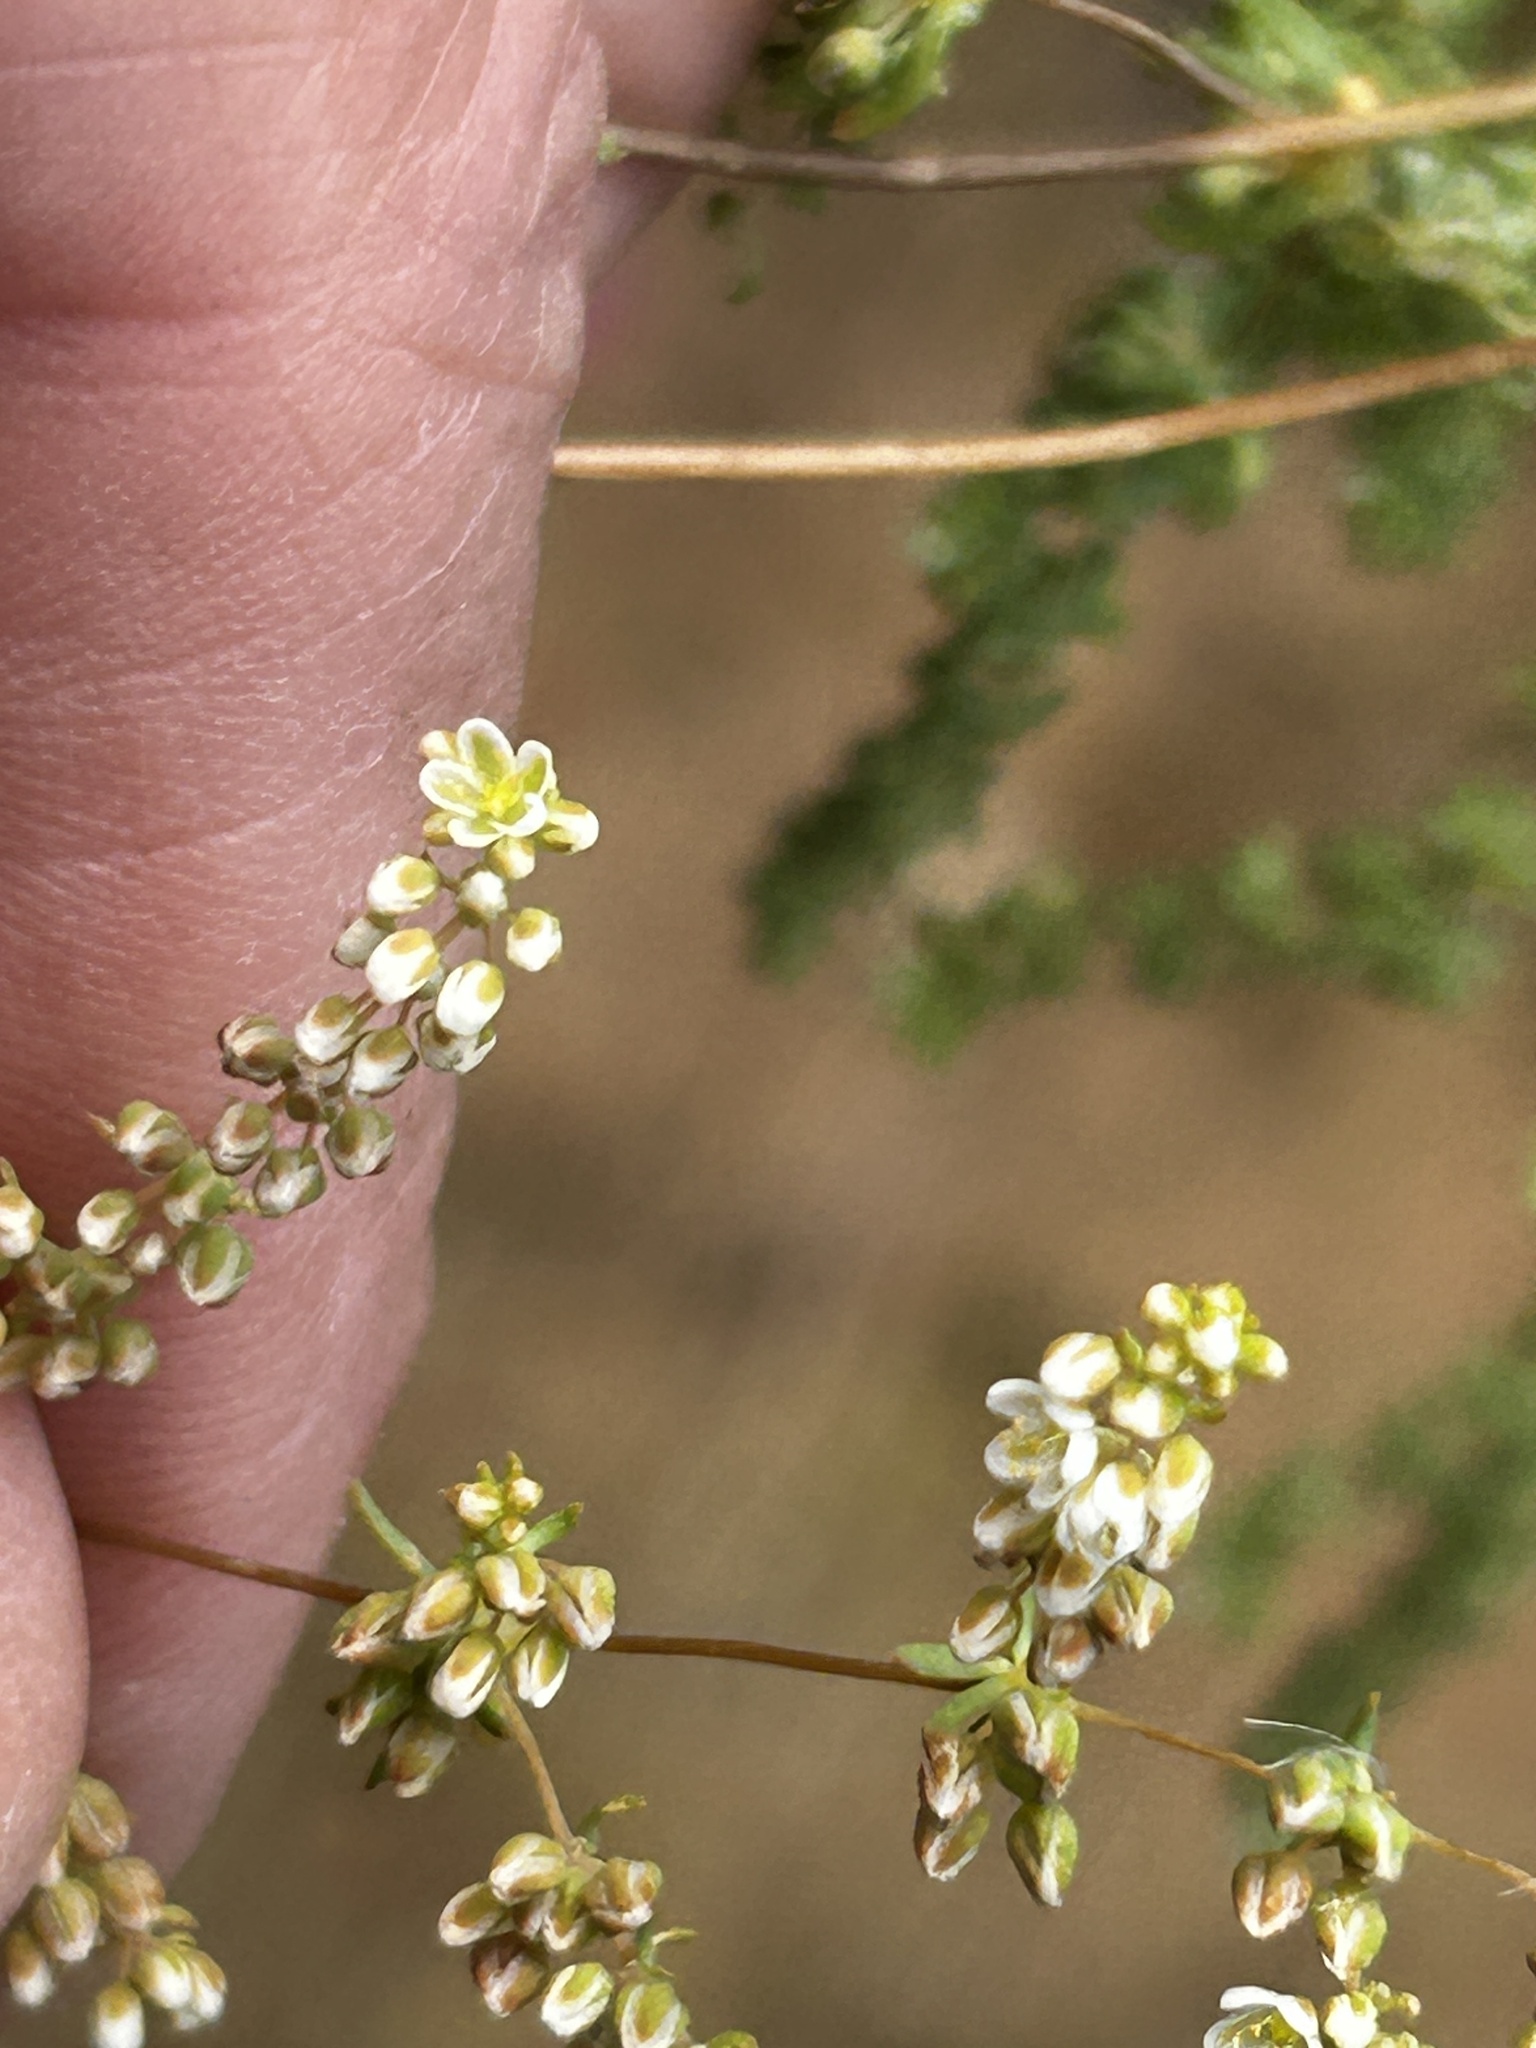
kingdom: Plantae
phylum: Tracheophyta
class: Magnoliopsida
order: Caryophyllales
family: Molluginaceae
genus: Adenogramma
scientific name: Adenogramma glomerata
